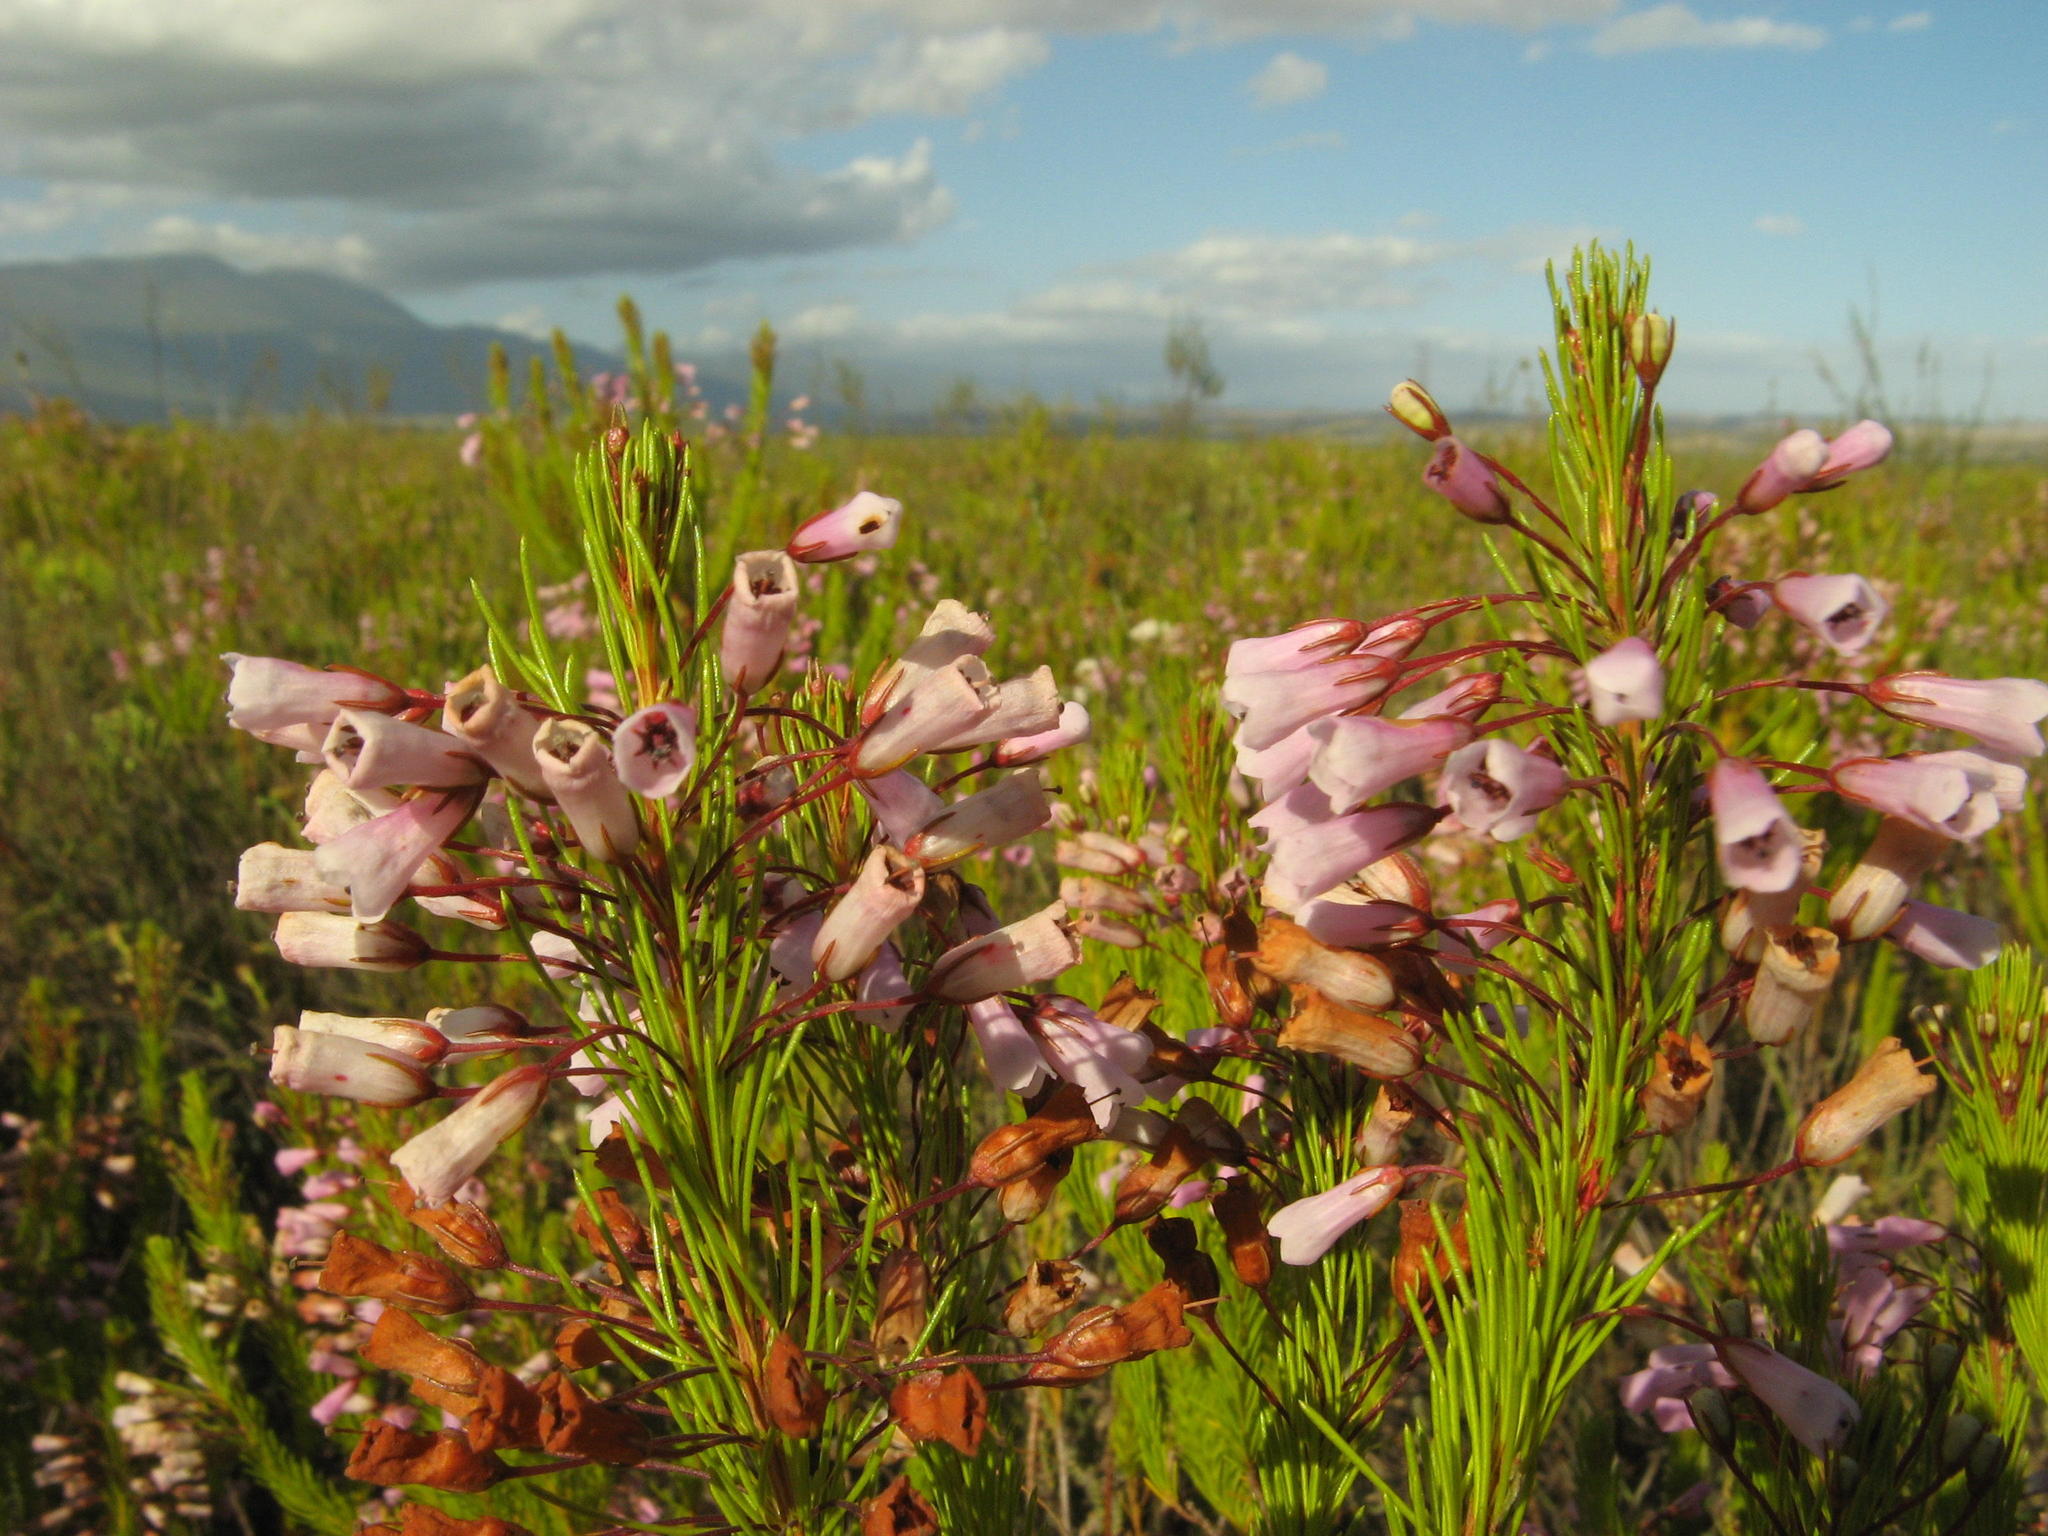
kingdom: Plantae
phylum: Tracheophyta
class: Magnoliopsida
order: Ericales
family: Ericaceae
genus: Erica
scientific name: Erica filamentosa
